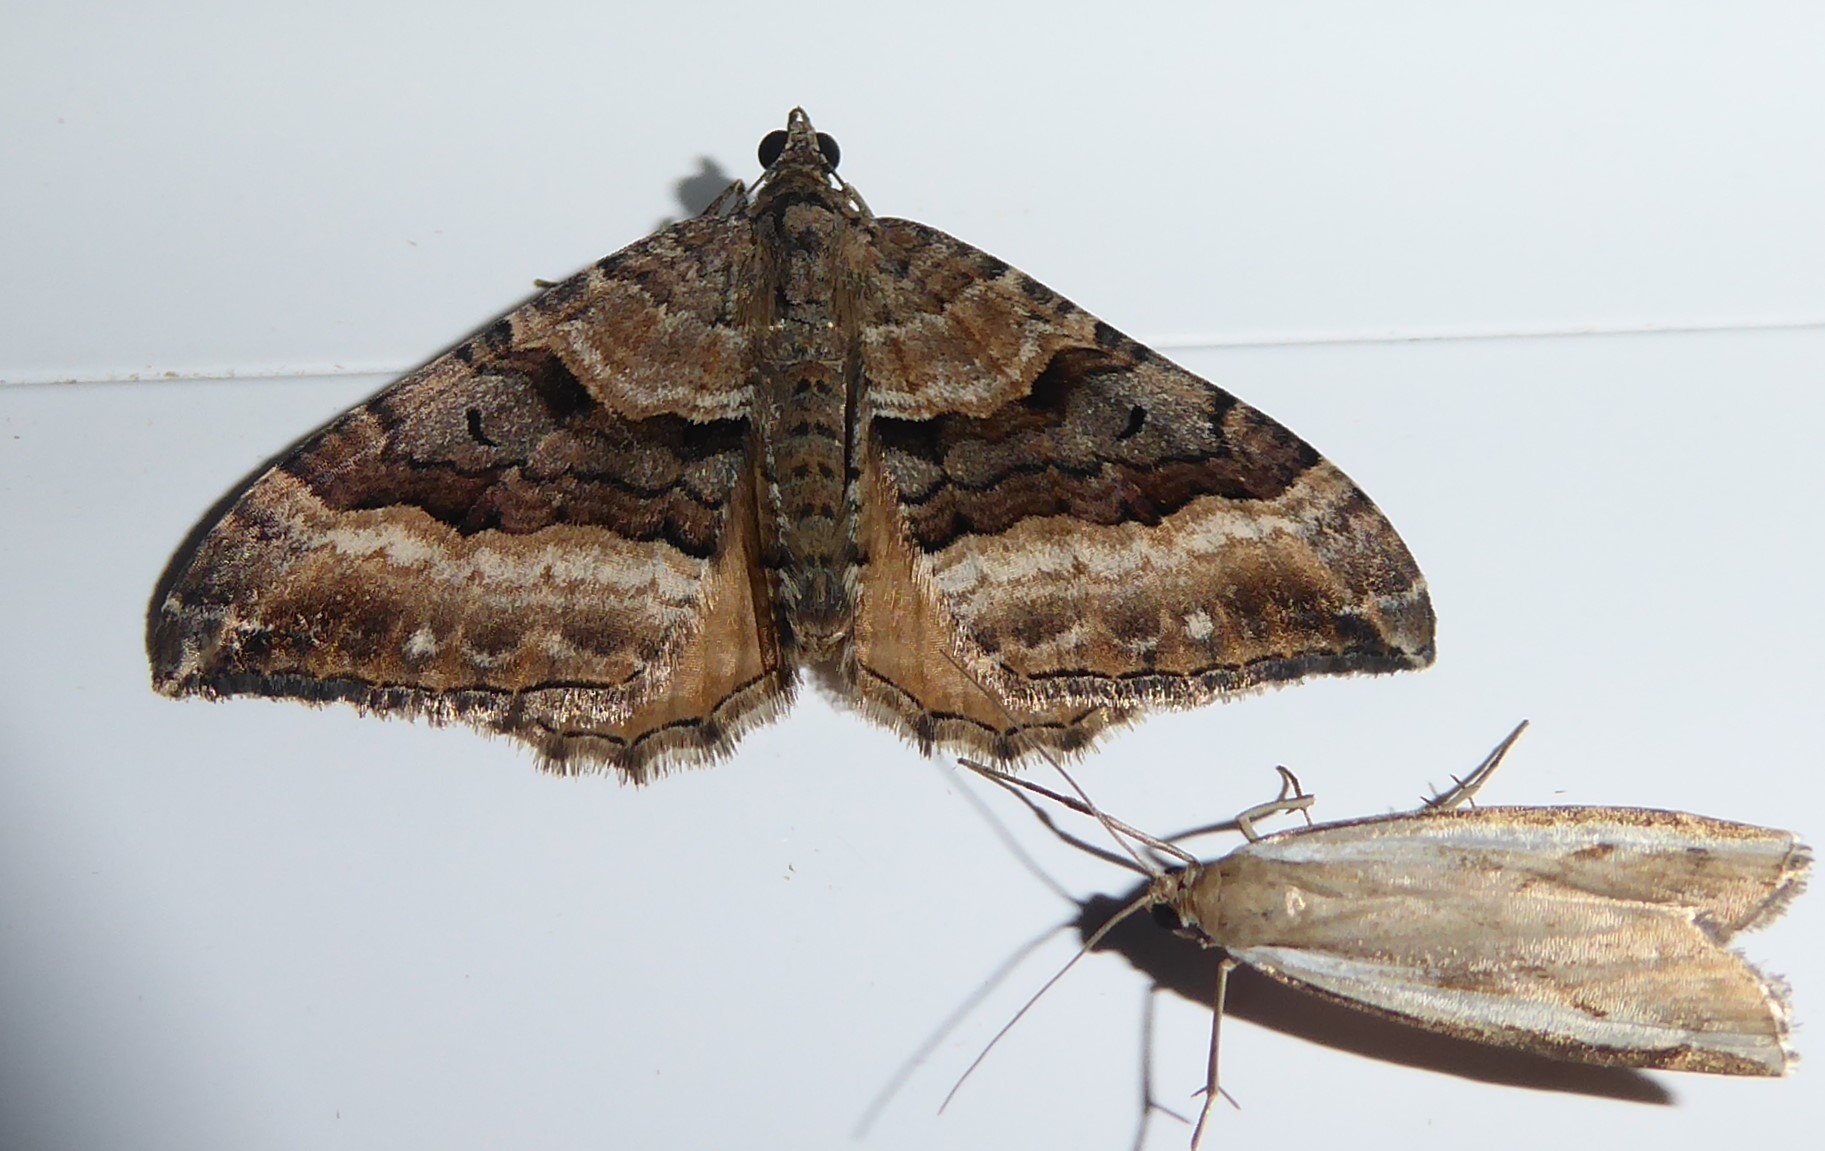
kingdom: Animalia
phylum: Arthropoda
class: Insecta
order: Lepidoptera
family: Geometridae
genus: Hydriomena
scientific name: Hydriomena deltoidata
